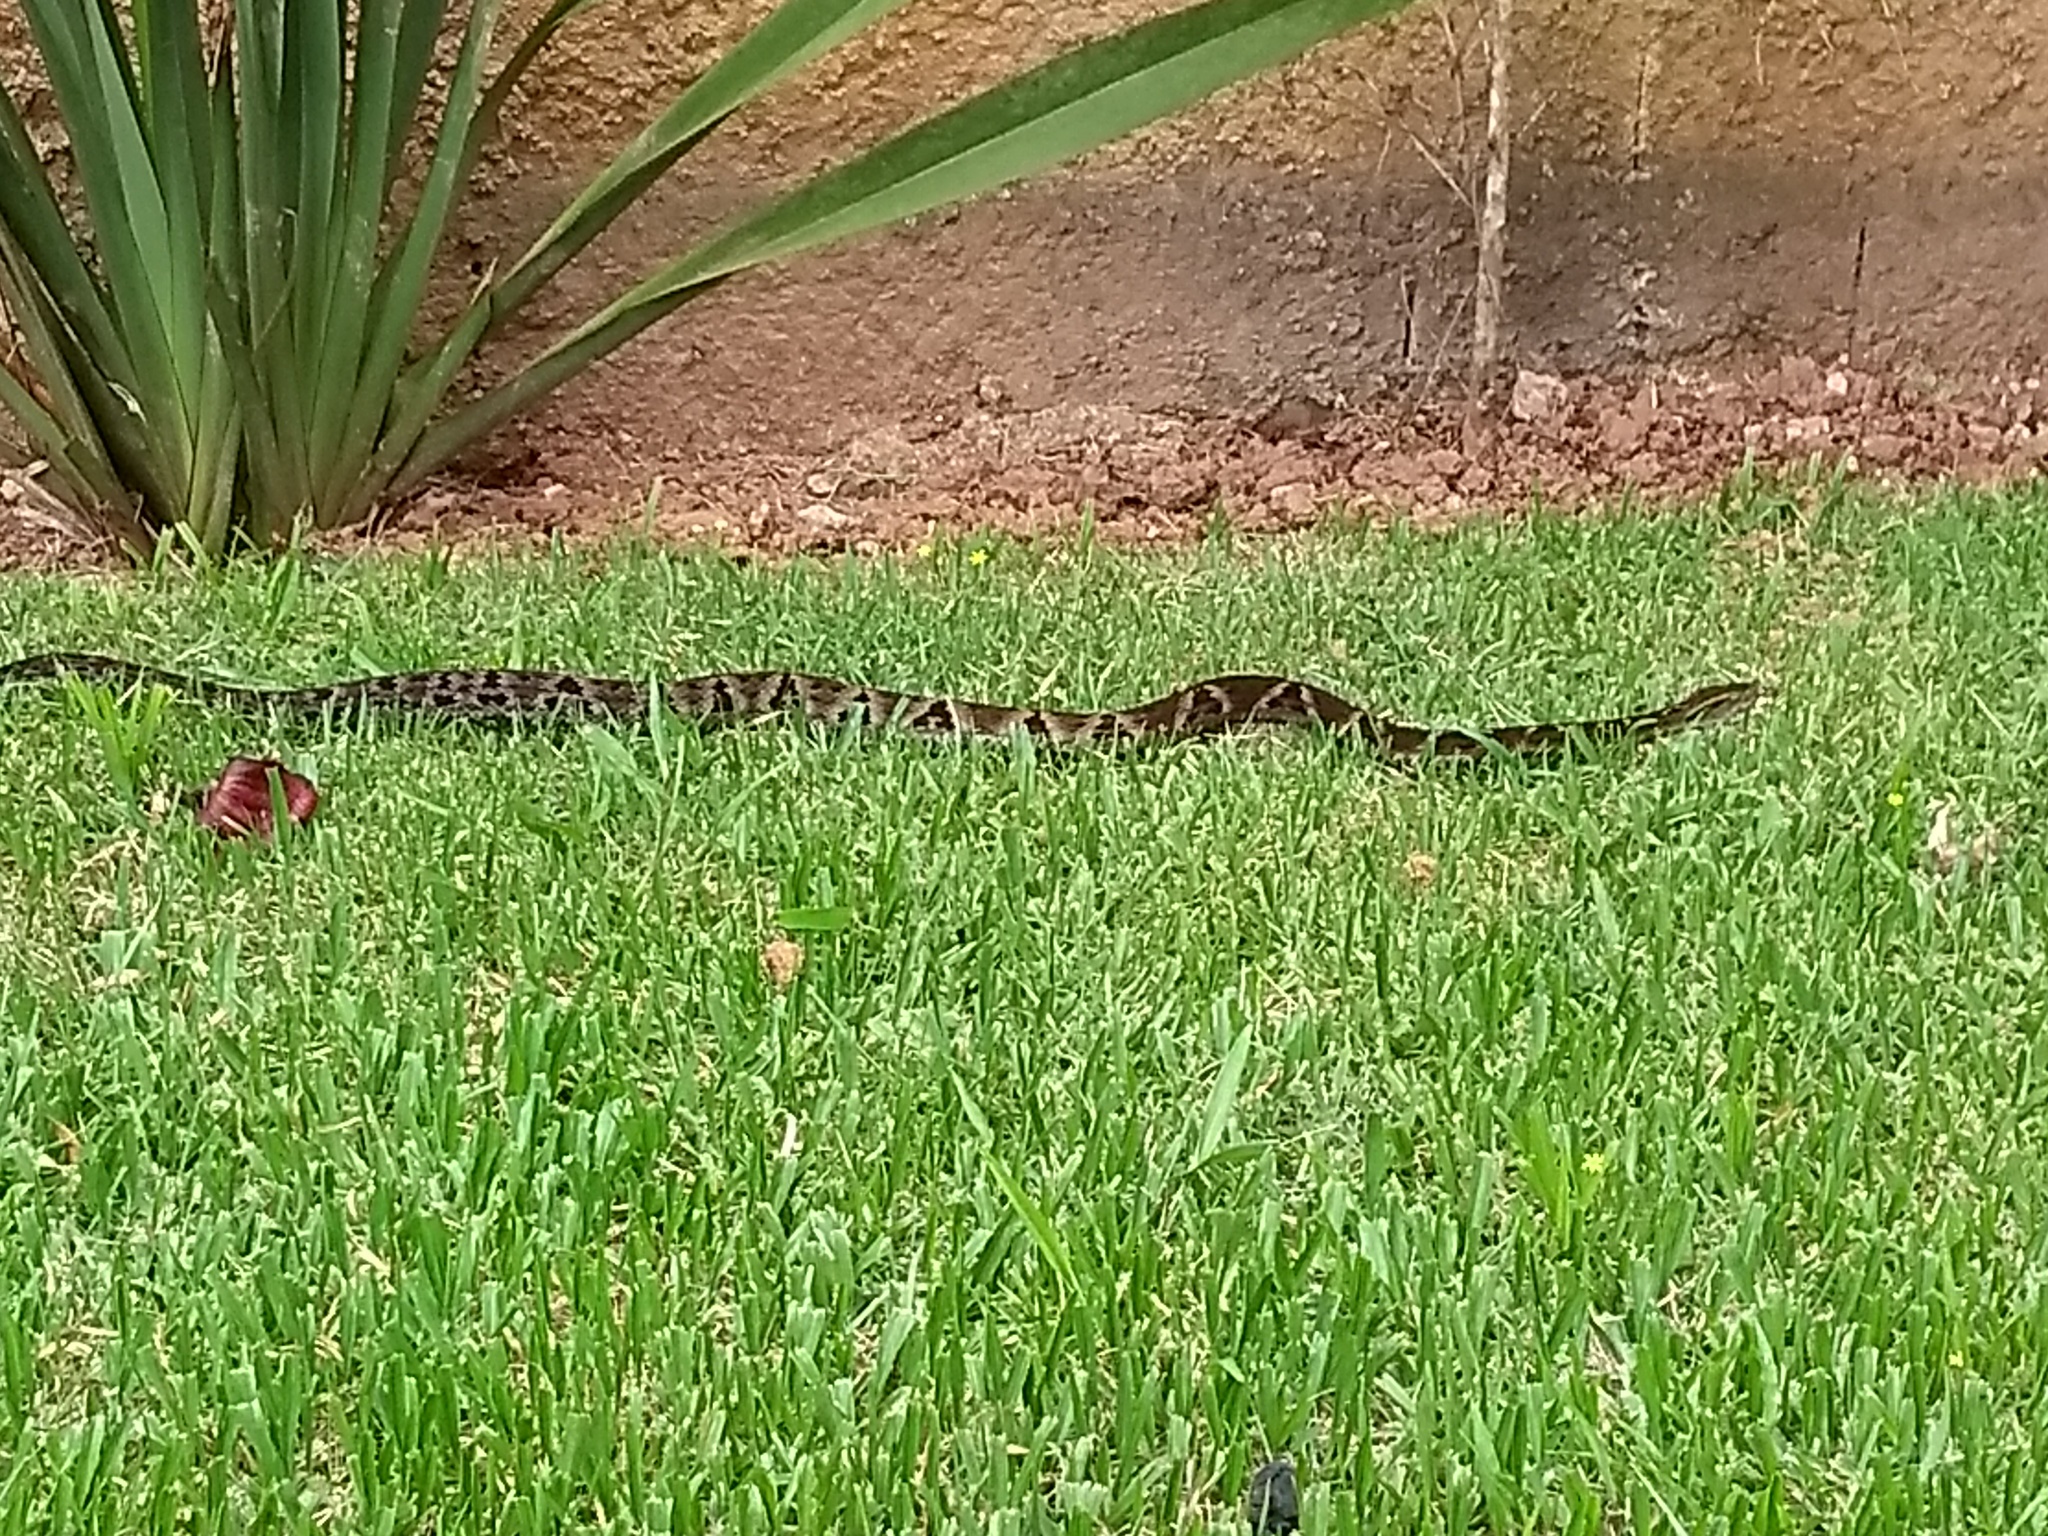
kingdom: Animalia
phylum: Chordata
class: Squamata
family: Viperidae
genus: Bothrops
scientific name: Bothrops jararaca
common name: Jararaca
